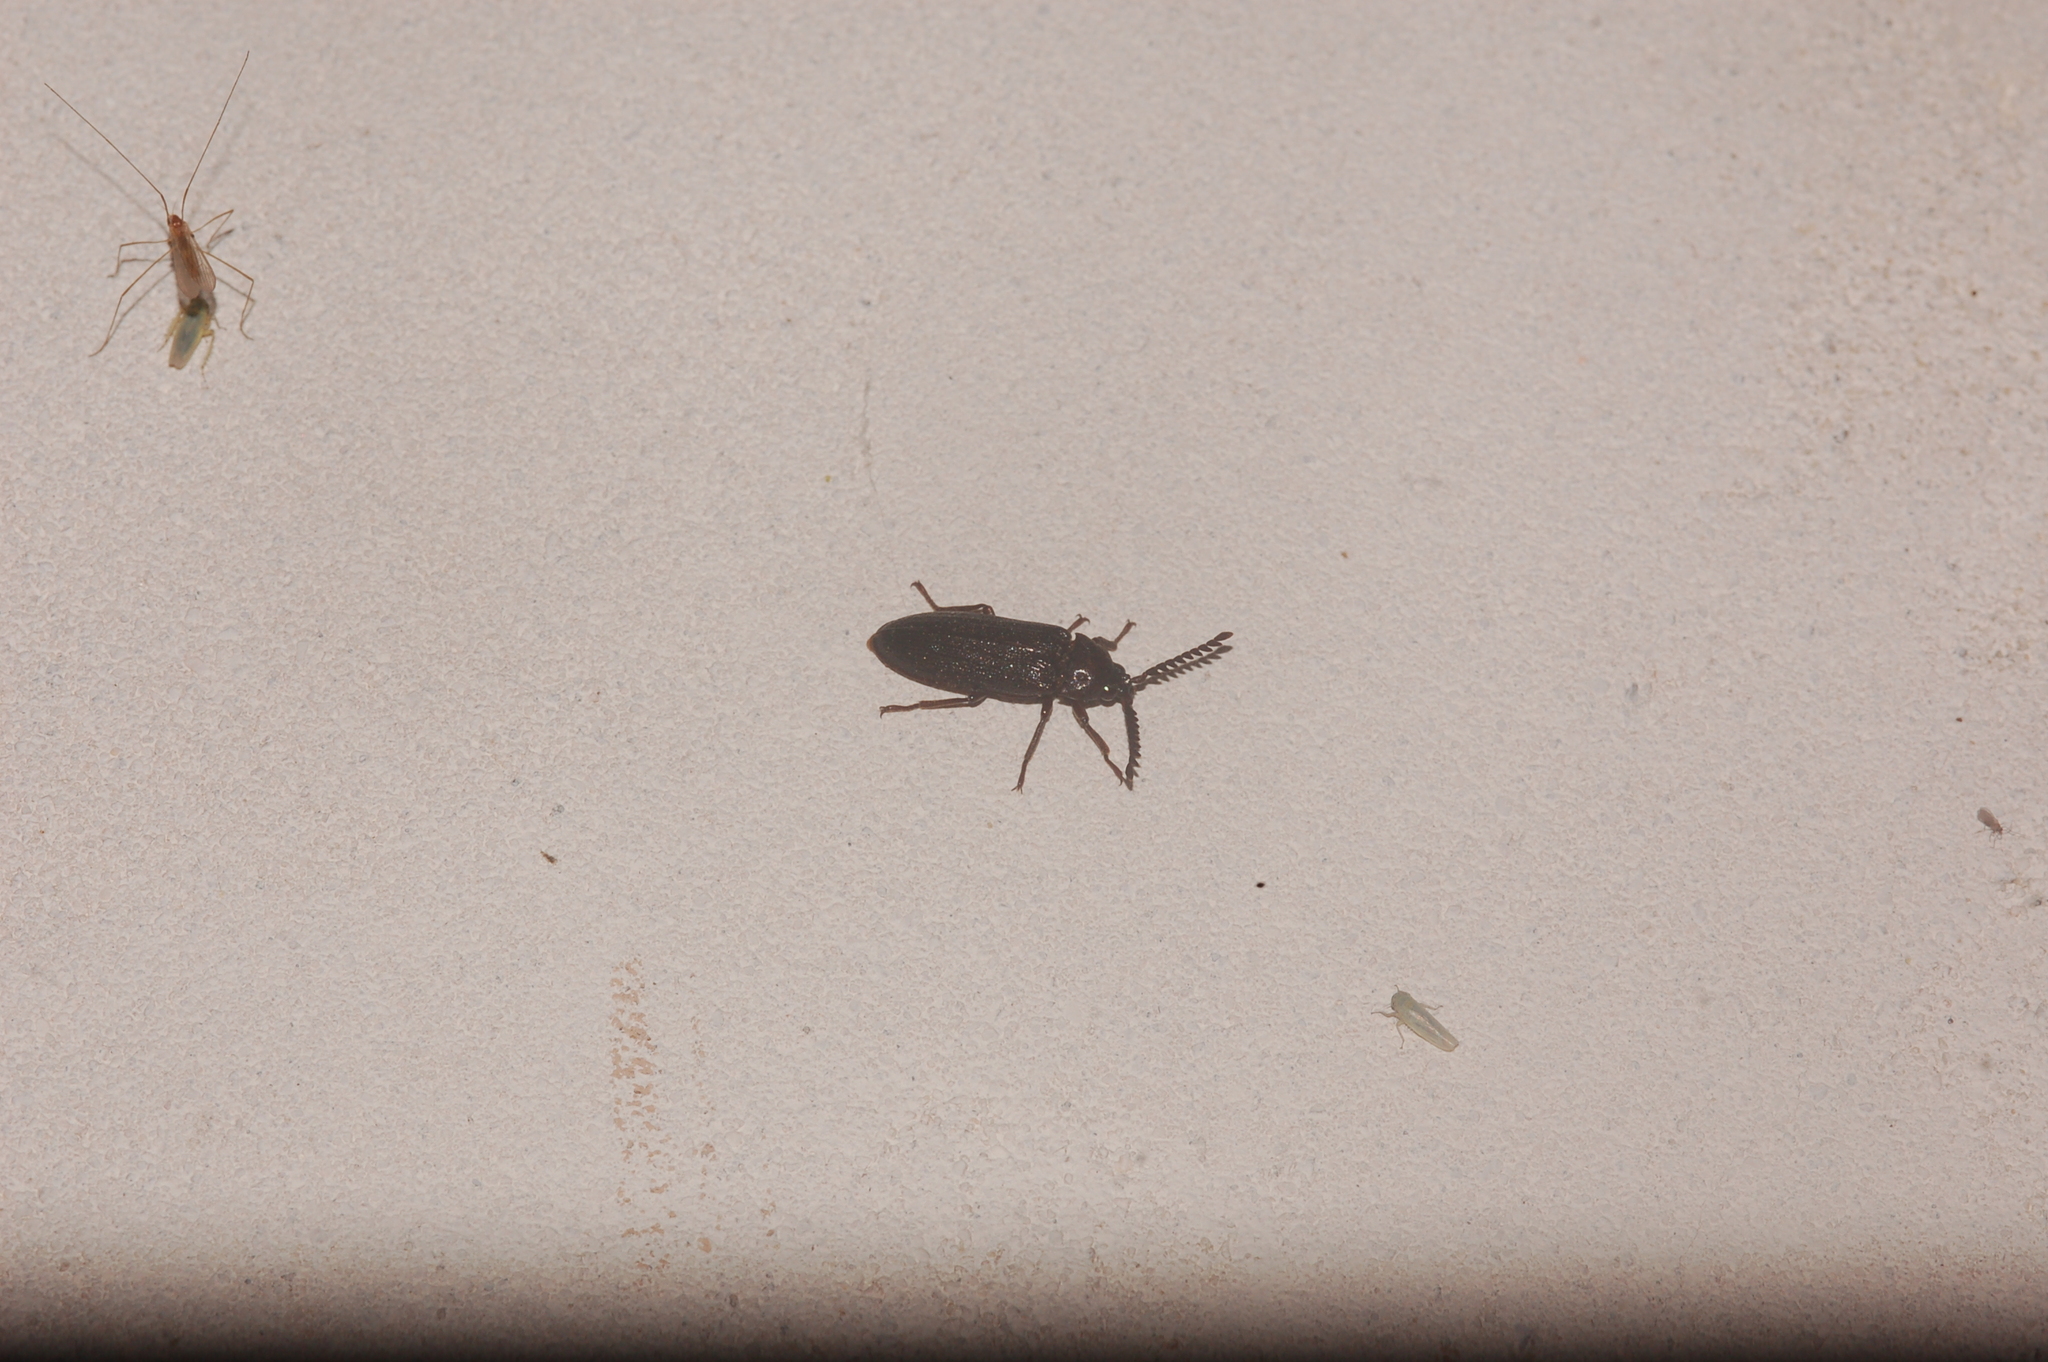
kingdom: Animalia
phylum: Arthropoda
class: Insecta
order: Coleoptera
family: Callirhipidae
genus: Zenoa
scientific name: Zenoa picea
